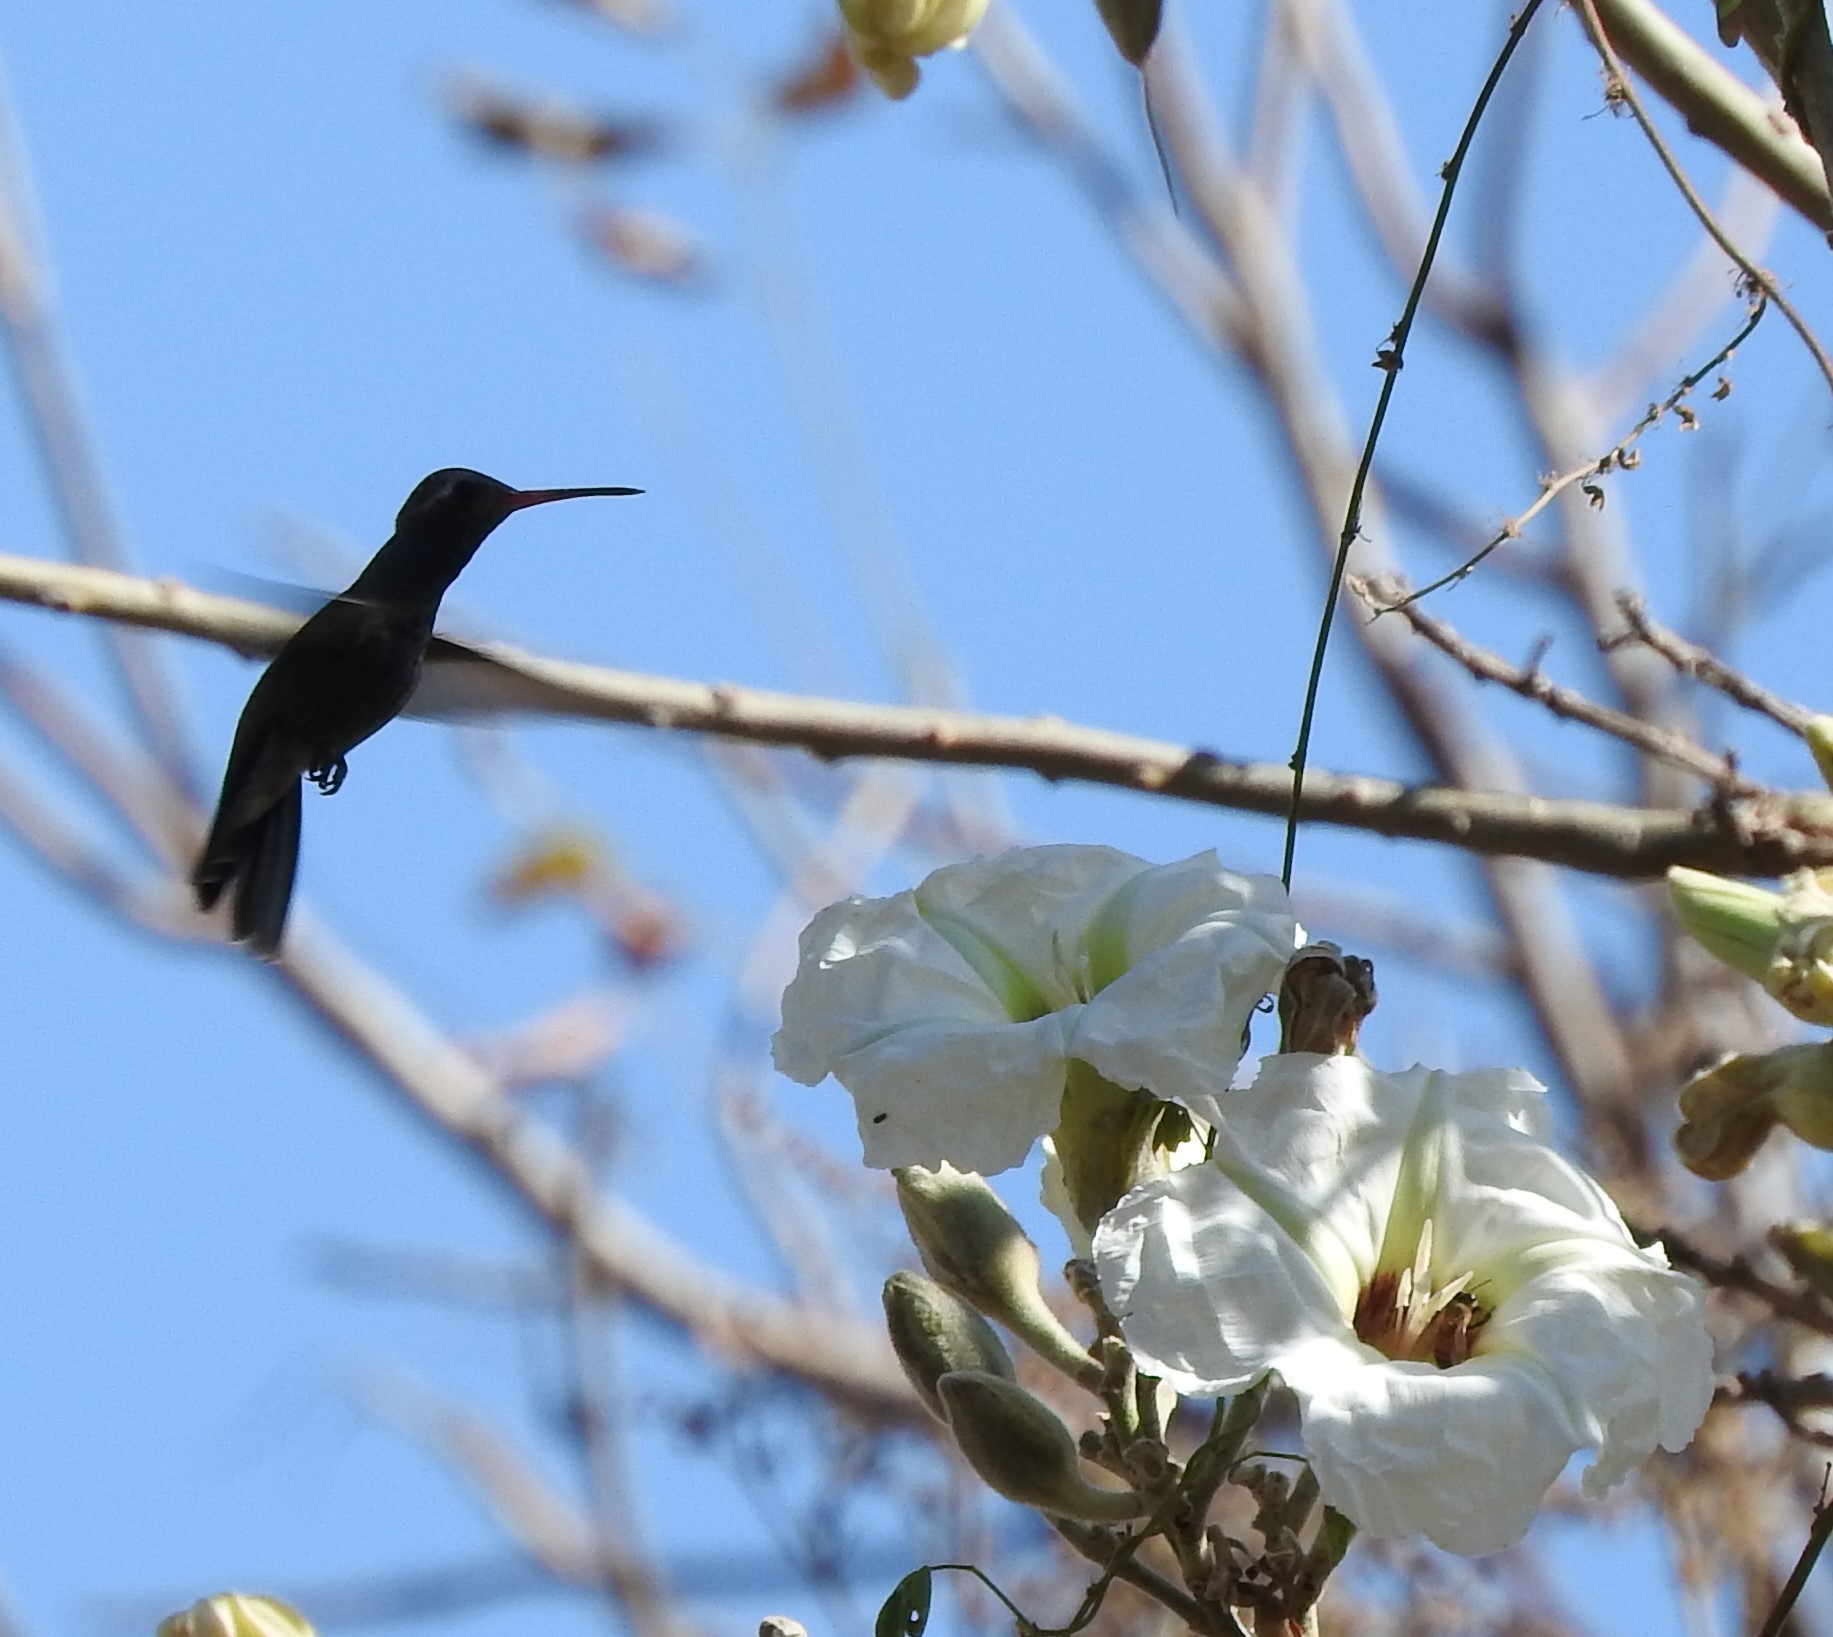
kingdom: Animalia
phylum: Chordata
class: Aves
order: Apodiformes
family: Trochilidae
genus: Cynanthus
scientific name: Cynanthus latirostris
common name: Broad-billed hummingbird
